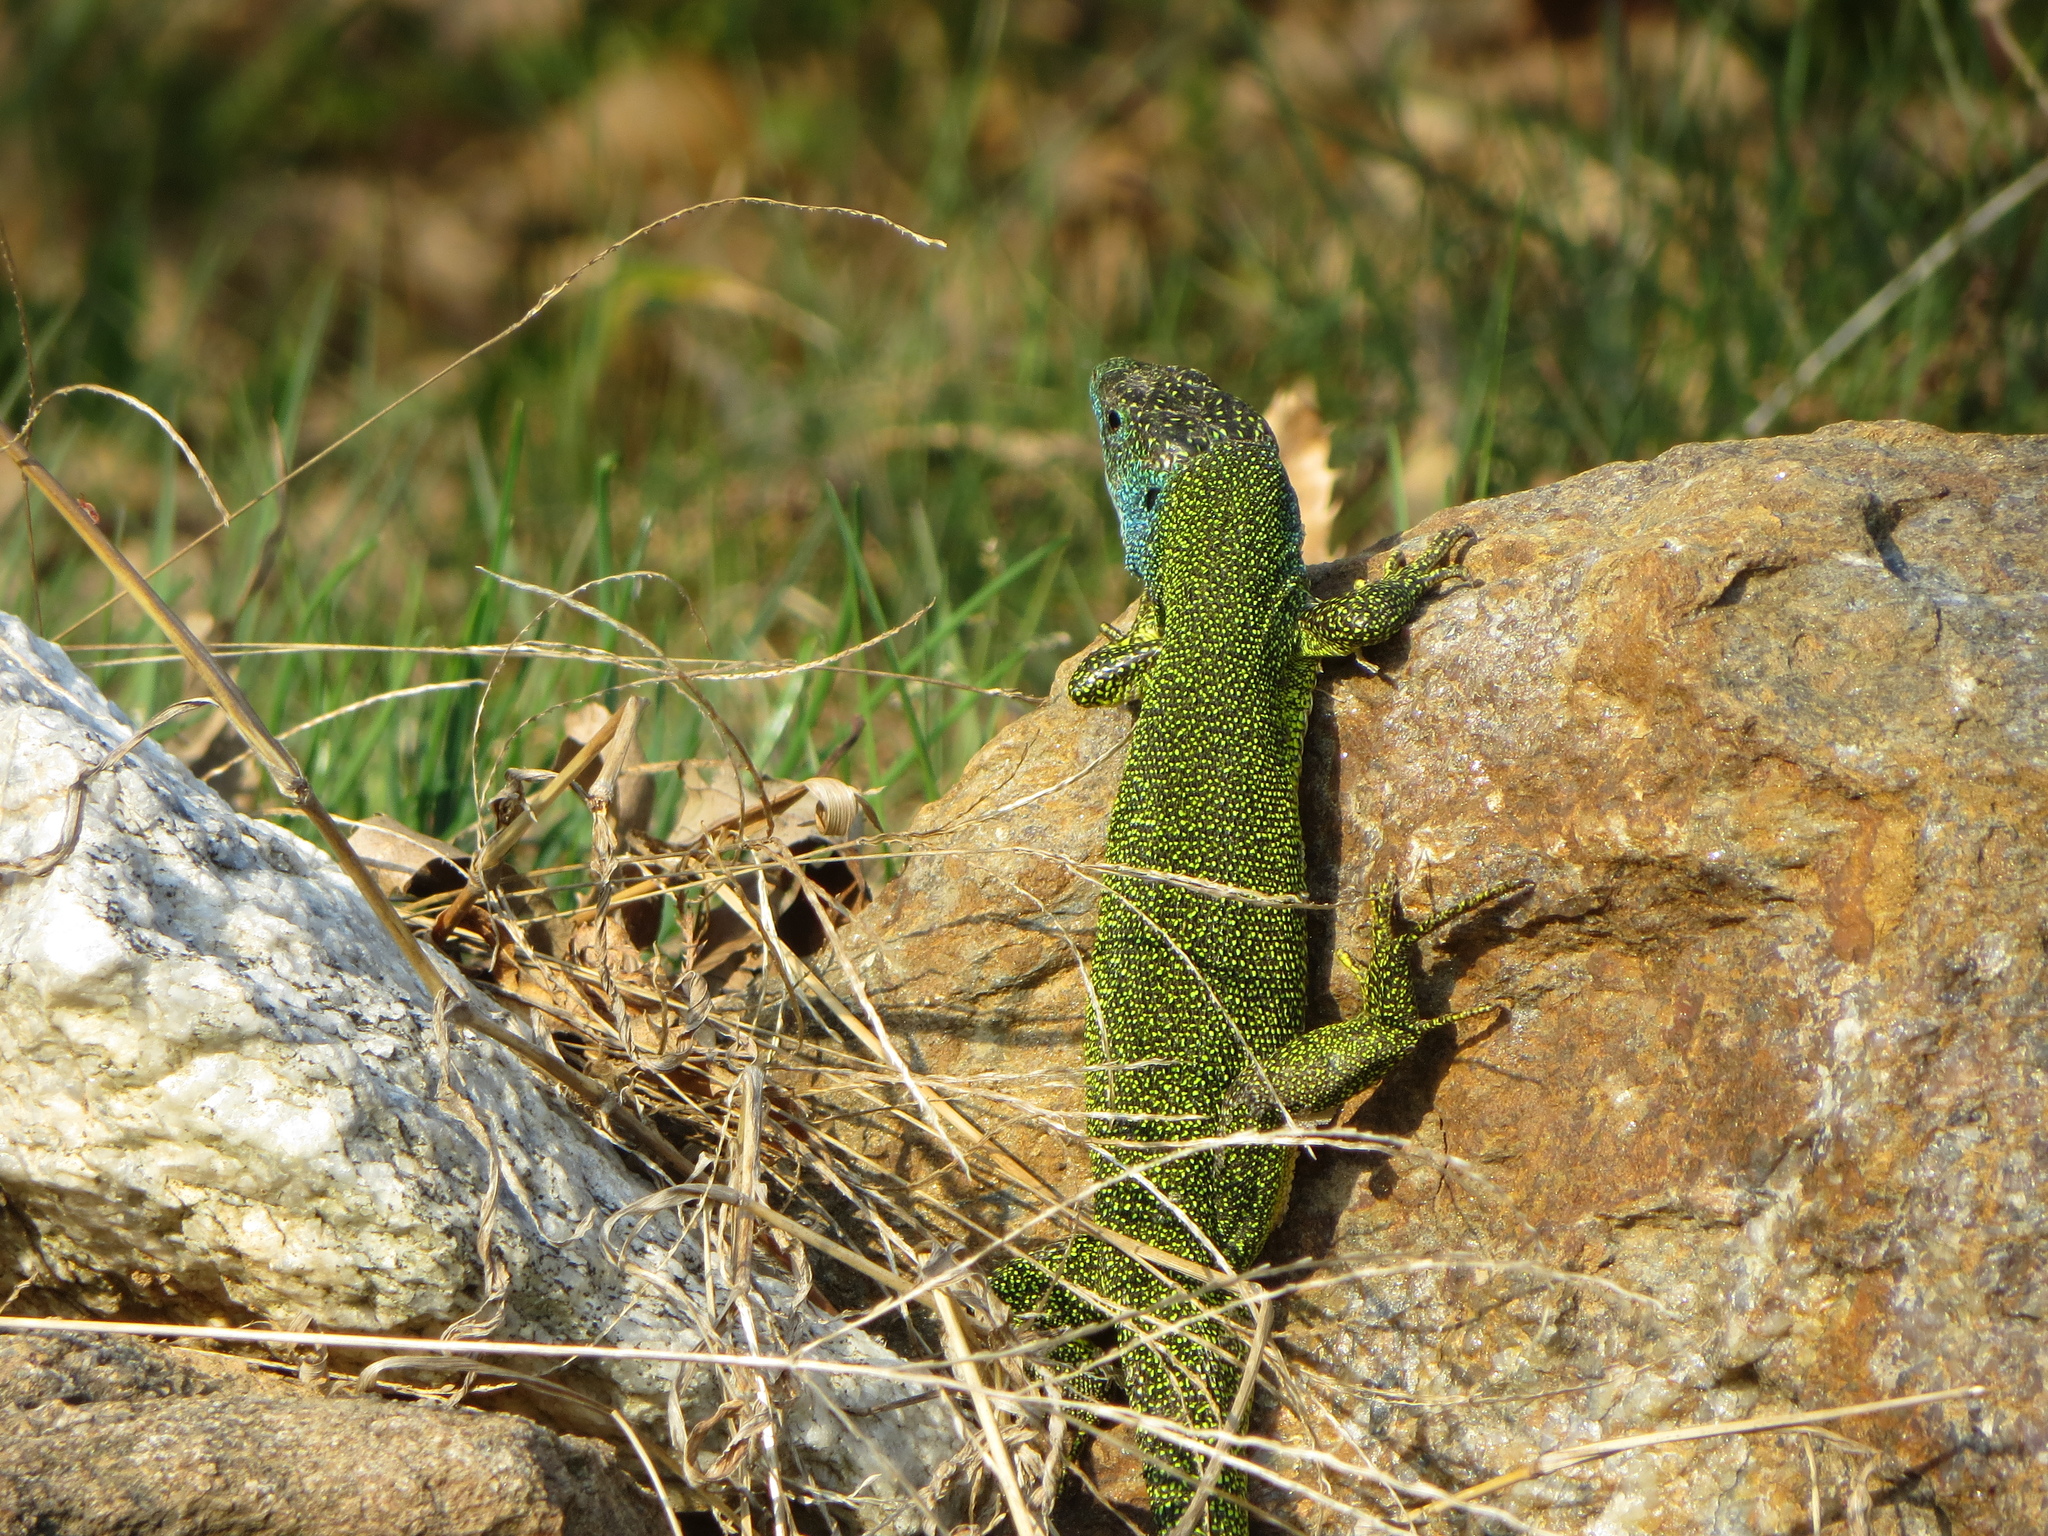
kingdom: Animalia
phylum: Chordata
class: Squamata
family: Lacertidae
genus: Lacerta
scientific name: Lacerta bilineata
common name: Western green lizard
